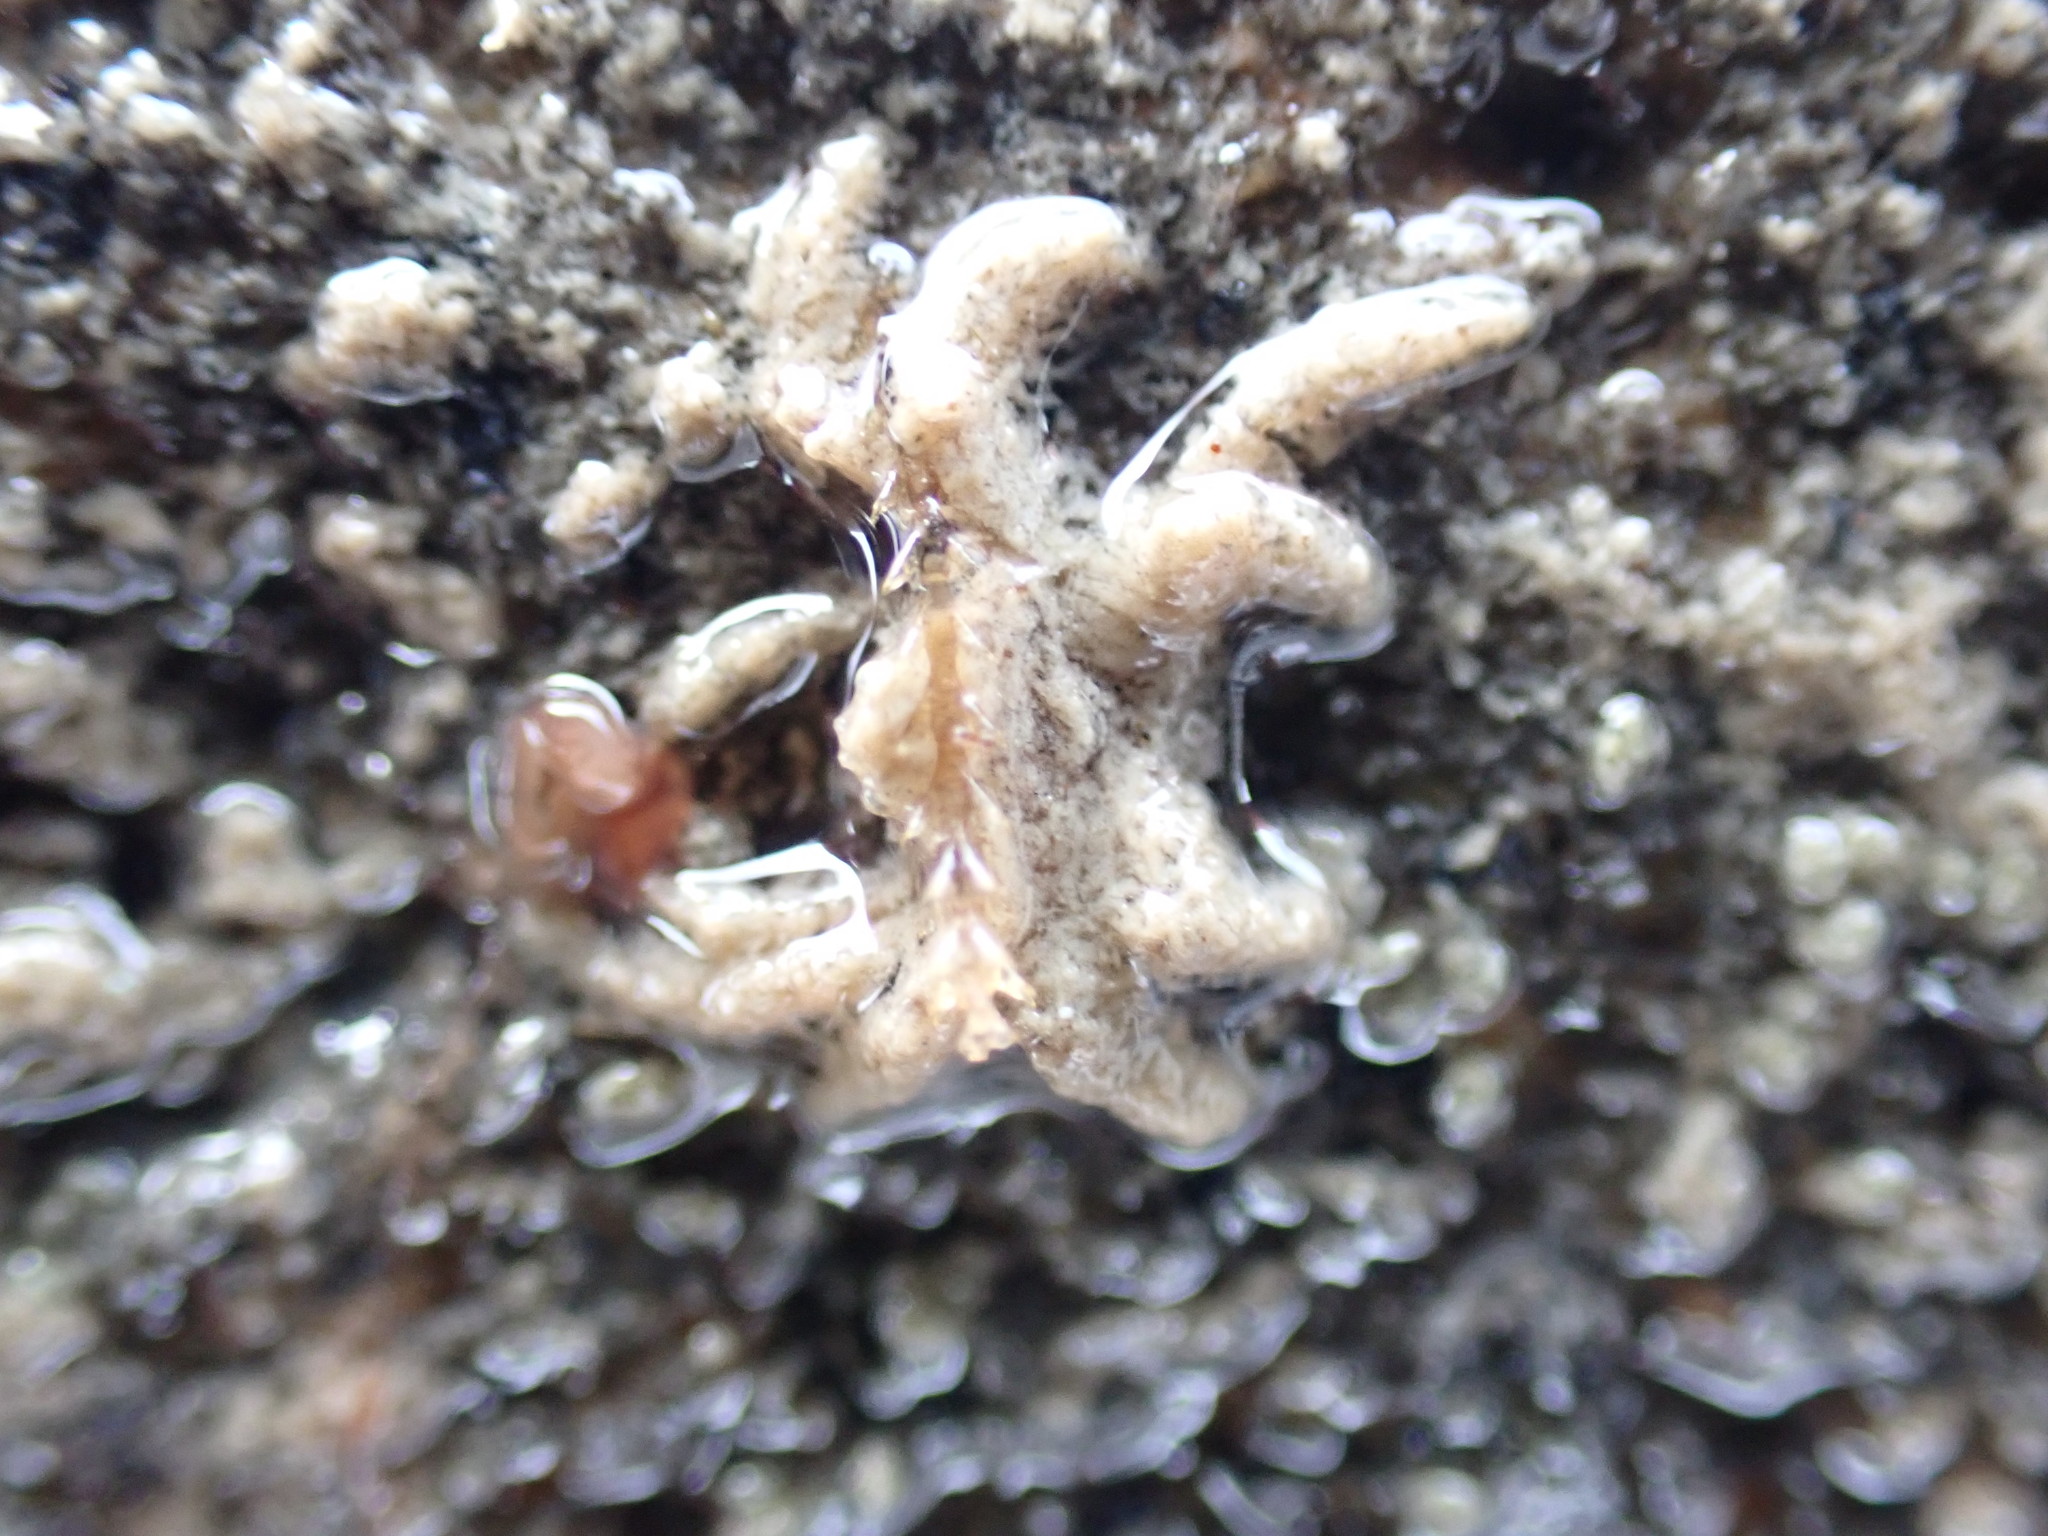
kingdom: Animalia
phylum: Arthropoda
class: Malacostraca
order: Decapoda
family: Hymenosomatidae
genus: Neohymenicus
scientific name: Neohymenicus pubescens
